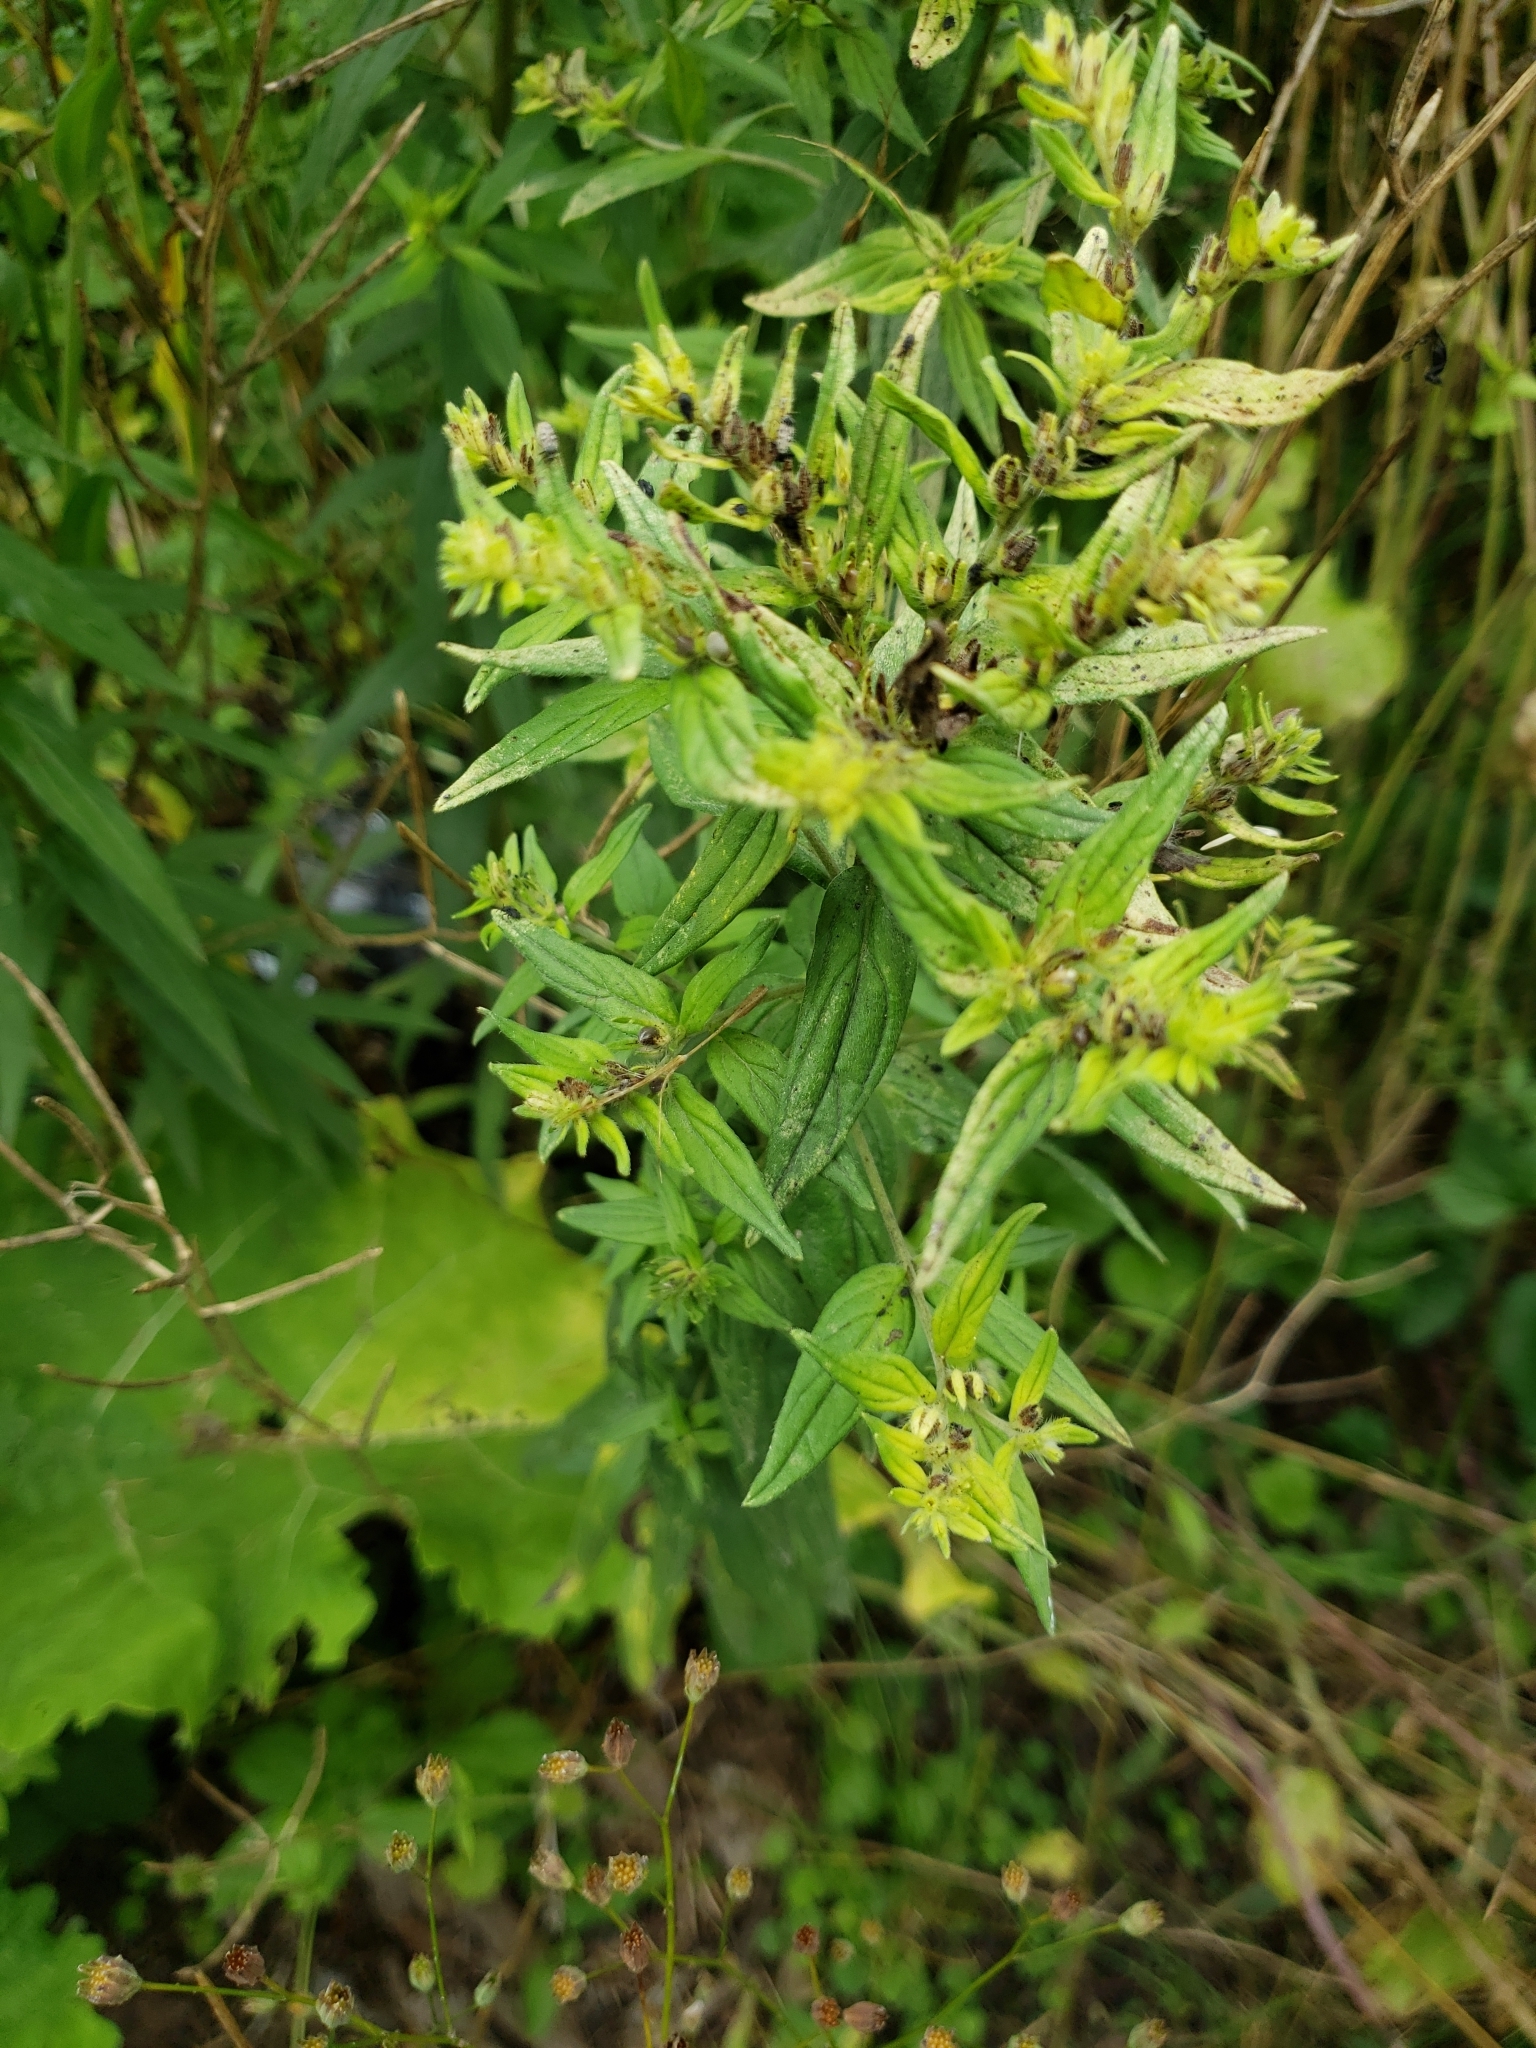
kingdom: Plantae
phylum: Tracheophyta
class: Magnoliopsida
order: Boraginales
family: Boraginaceae
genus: Lithospermum
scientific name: Lithospermum officinale
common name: Common gromwell
